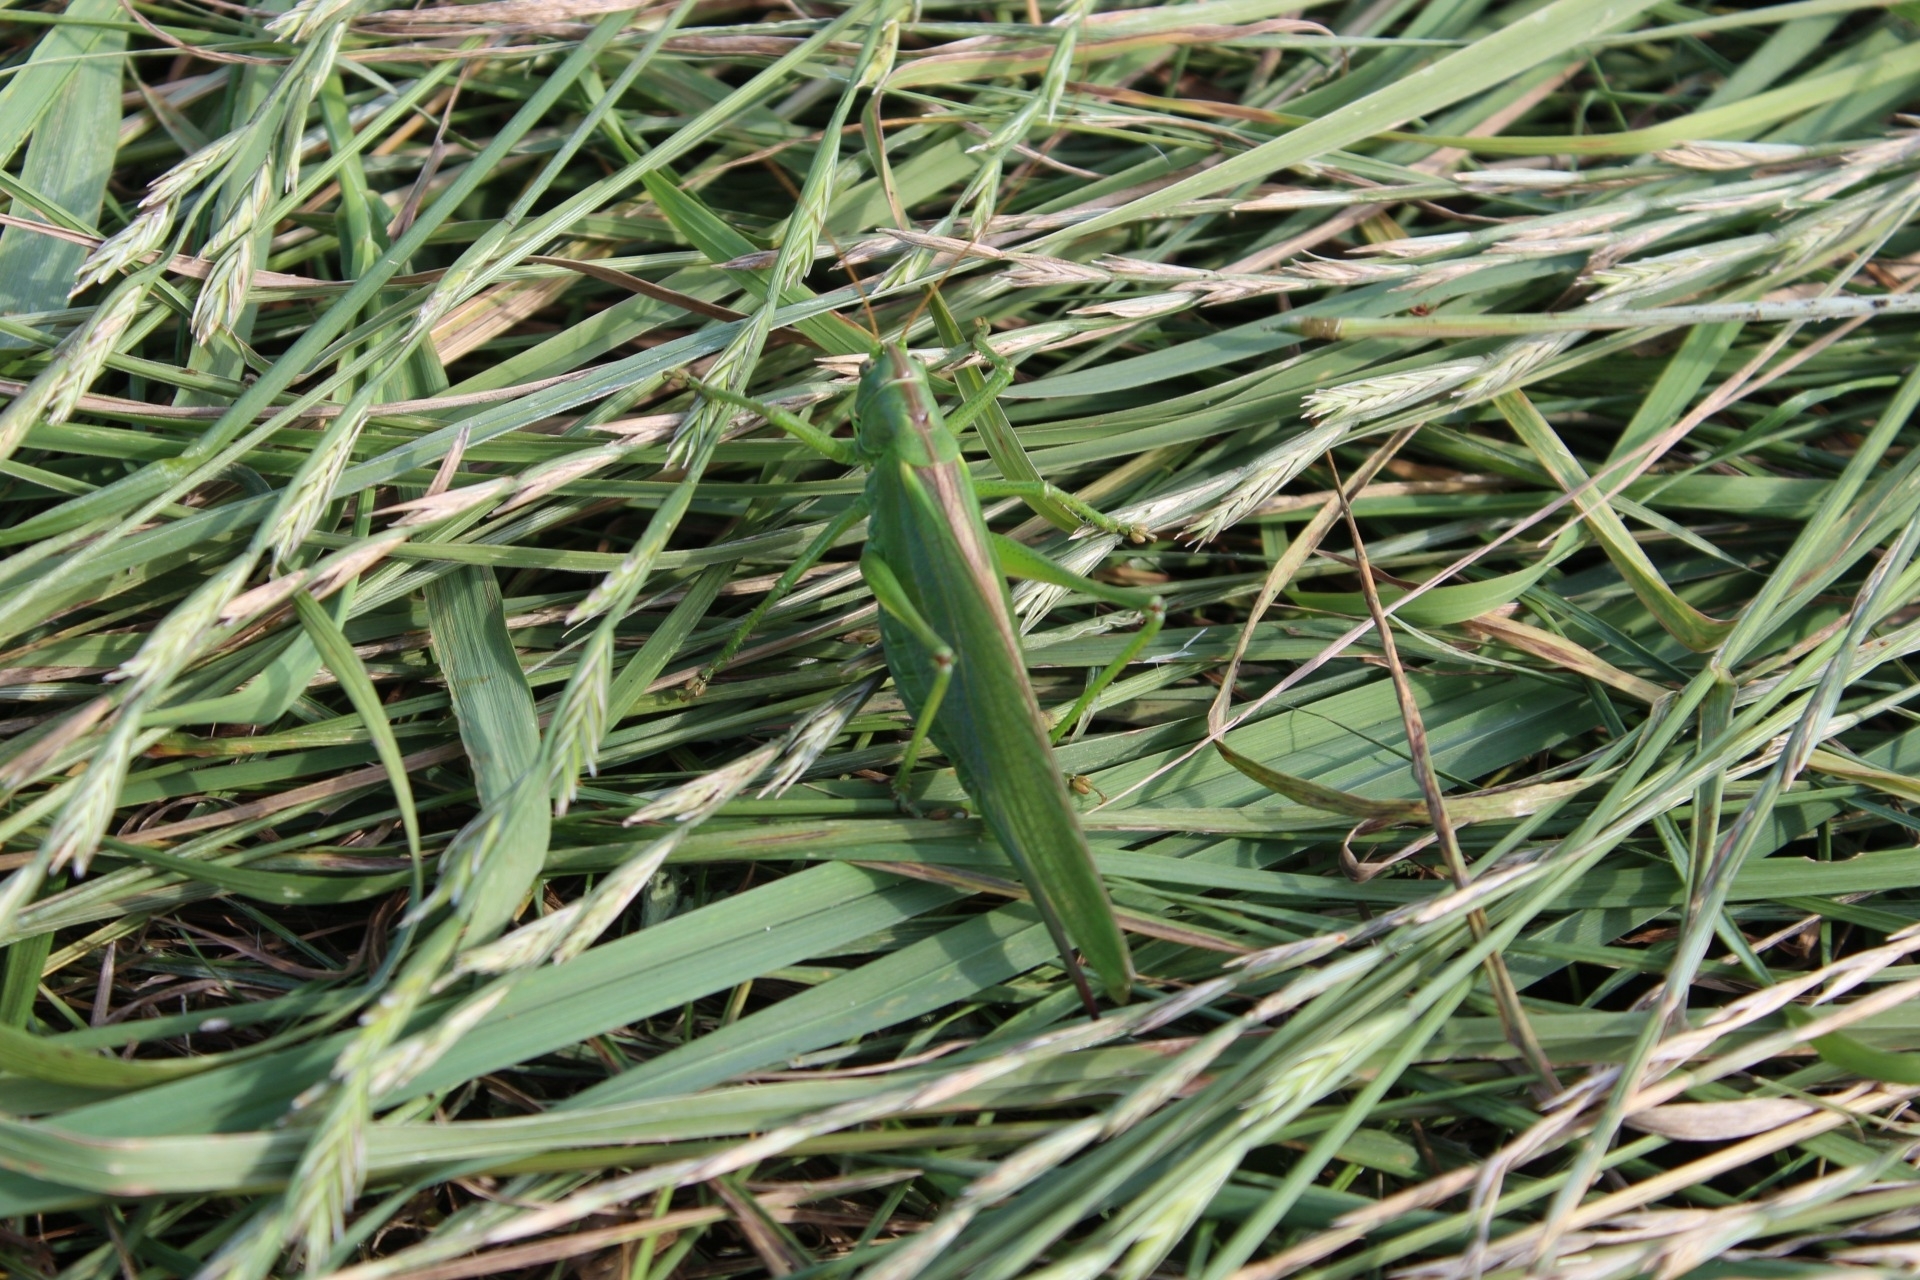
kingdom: Animalia
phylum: Arthropoda
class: Insecta
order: Orthoptera
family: Tettigoniidae
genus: Tettigonia
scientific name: Tettigonia viridissima
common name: Great green bush-cricket
